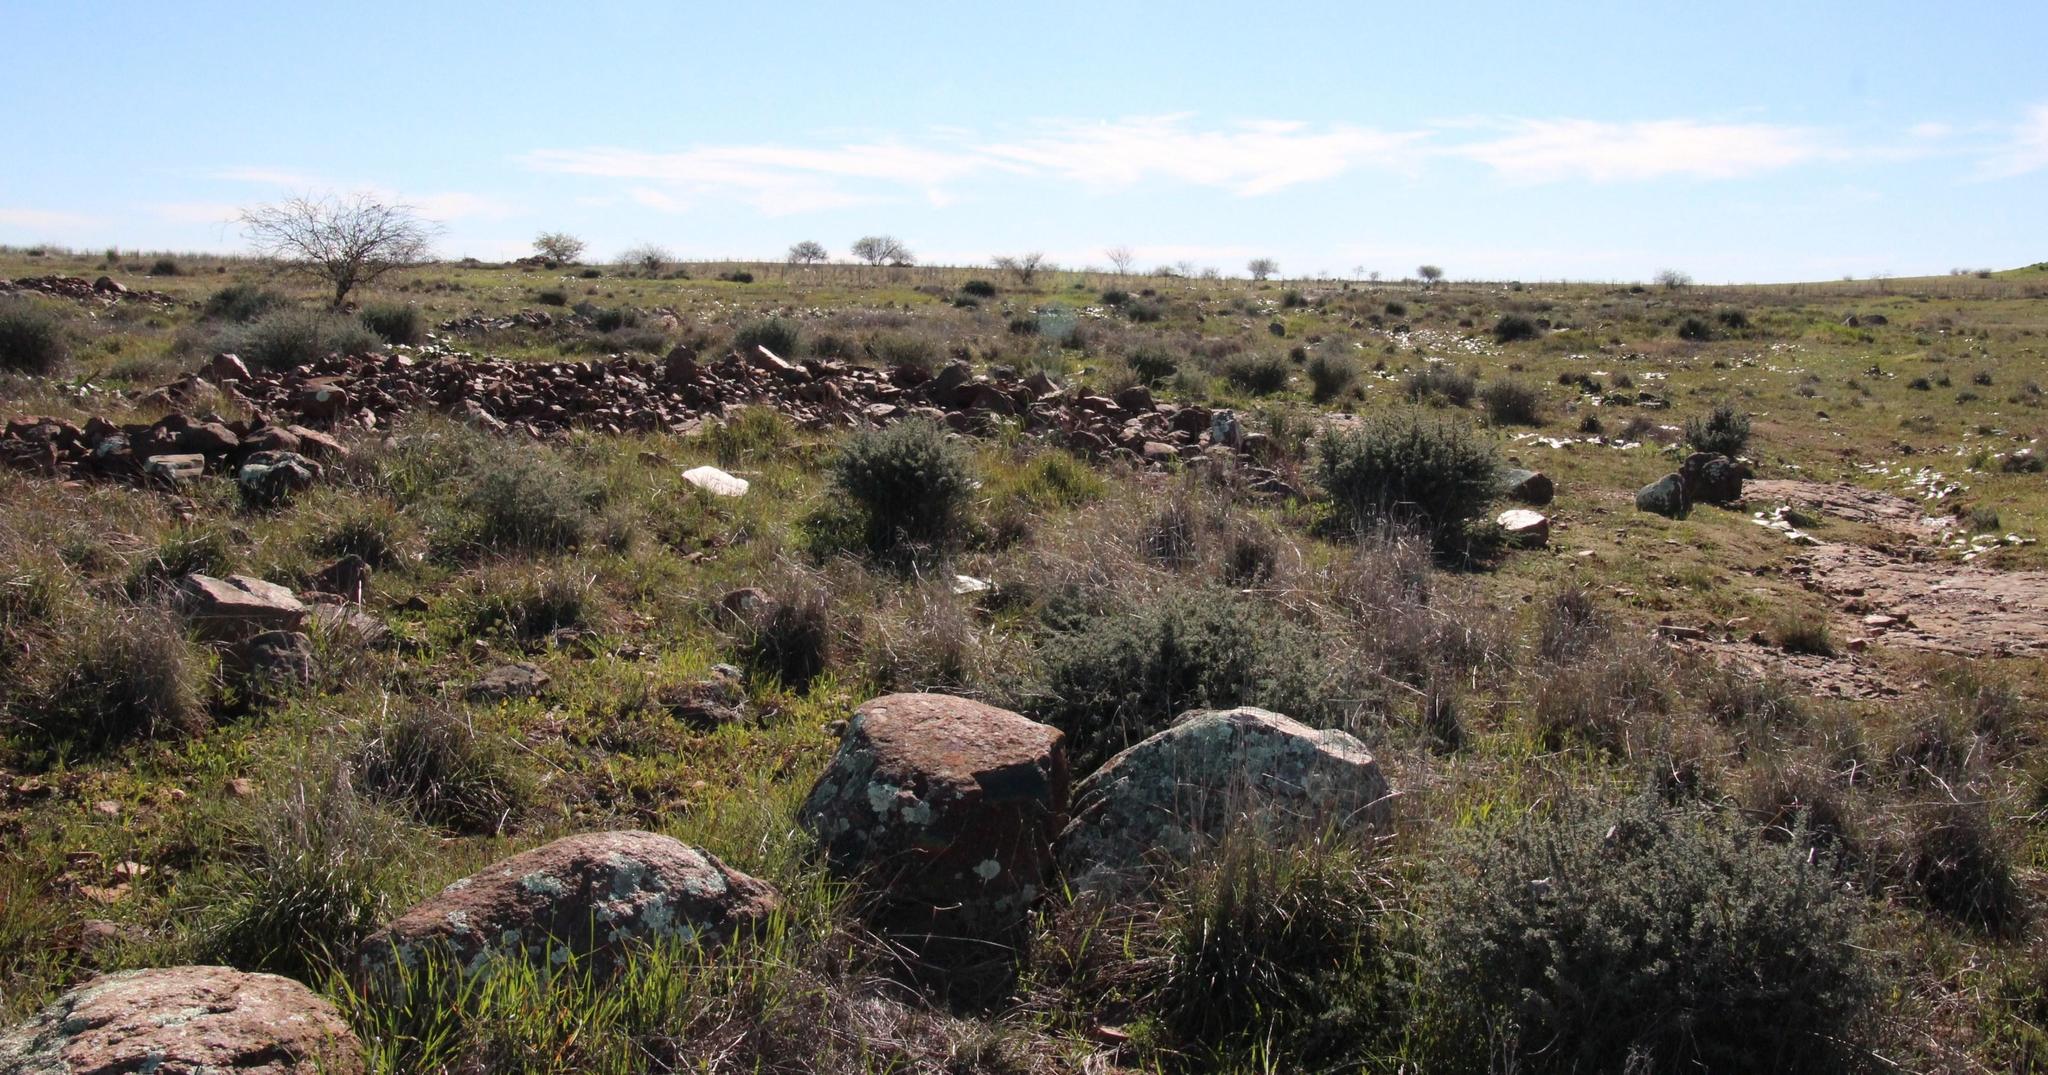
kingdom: Plantae
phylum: Tracheophyta
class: Magnoliopsida
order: Fabales
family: Fabaceae
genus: Prosopis
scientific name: Prosopis glandulosa
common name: Honey mesquite
